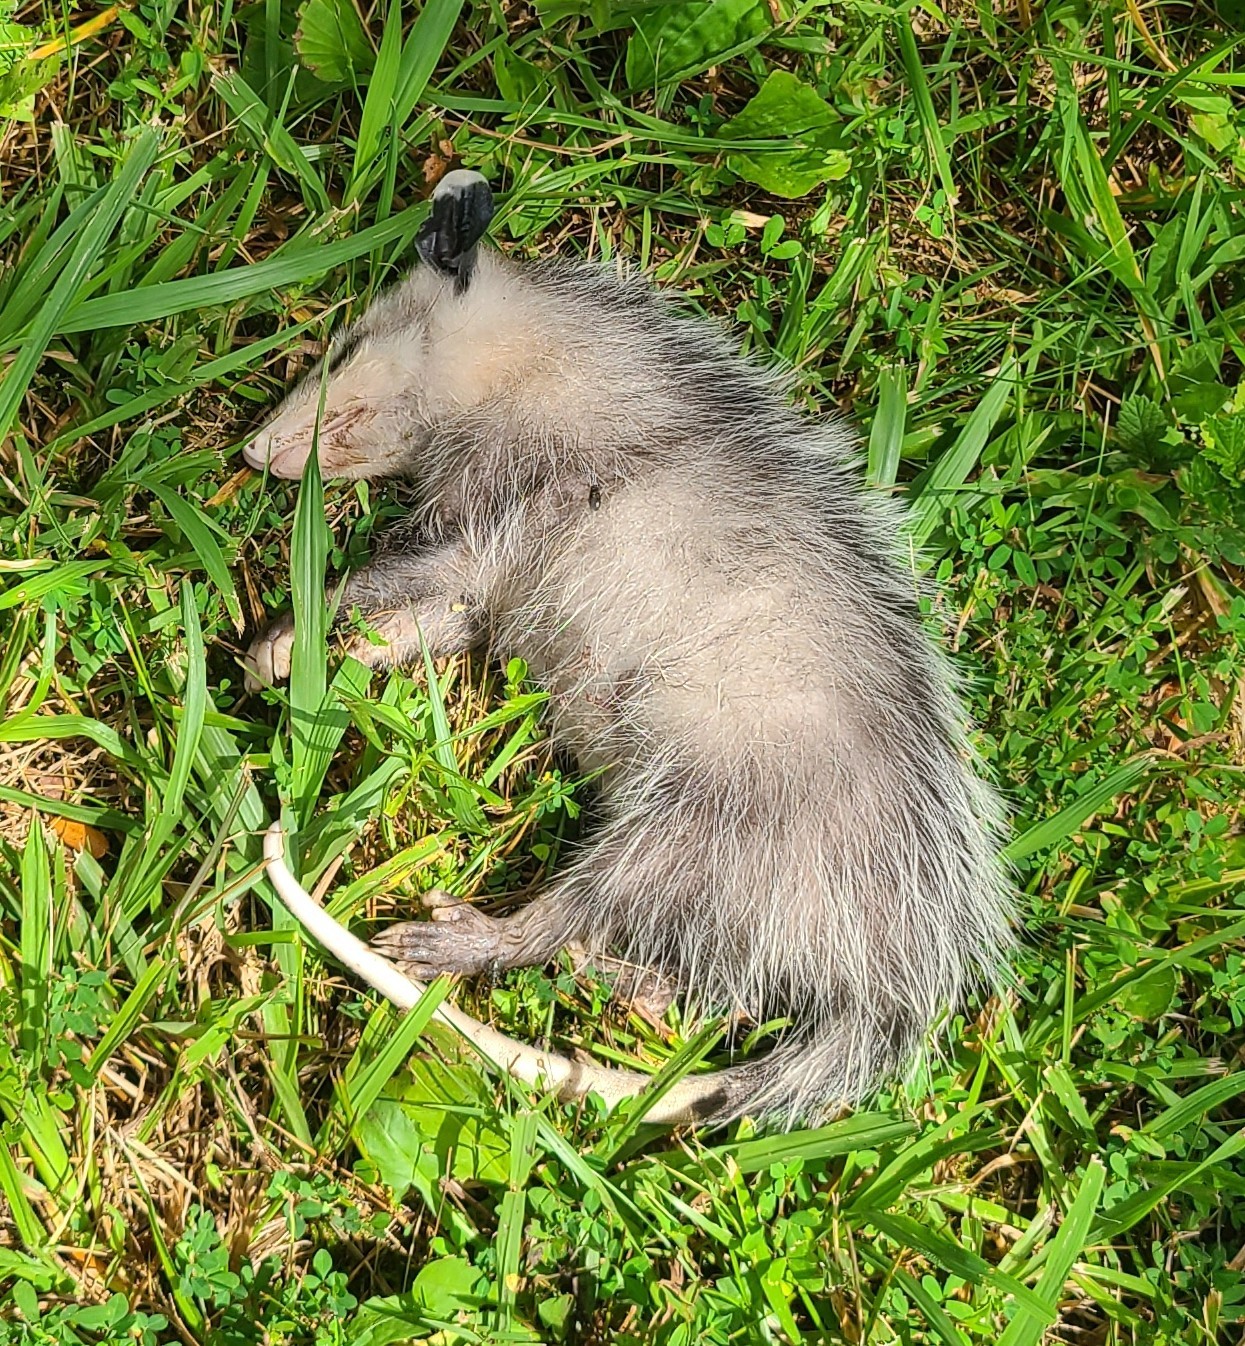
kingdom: Animalia
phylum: Chordata
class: Mammalia
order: Didelphimorphia
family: Didelphidae
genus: Didelphis
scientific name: Didelphis virginiana
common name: Virginia opossum
